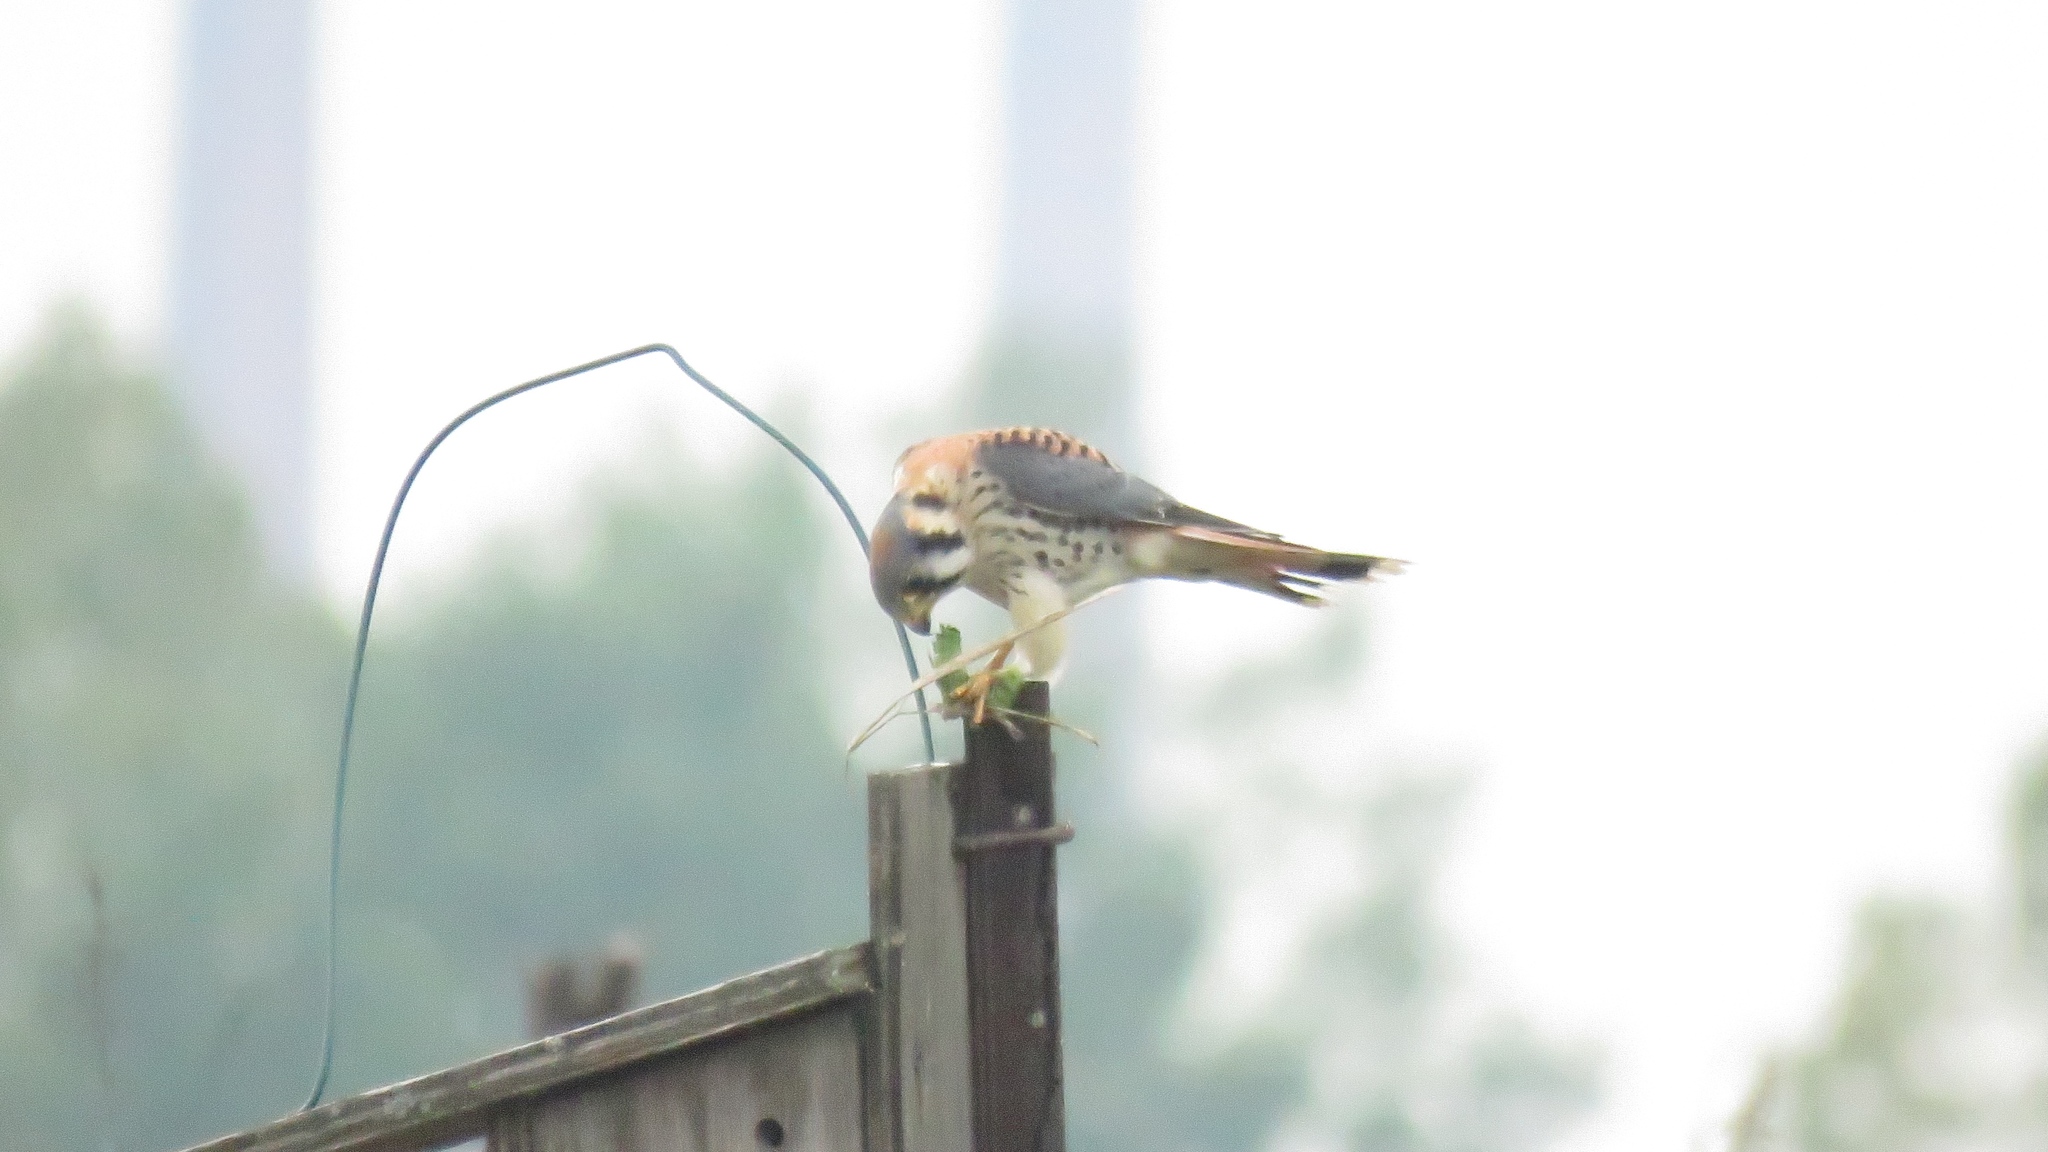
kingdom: Animalia
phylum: Chordata
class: Aves
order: Falconiformes
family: Falconidae
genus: Falco
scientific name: Falco sparverius
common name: American kestrel
